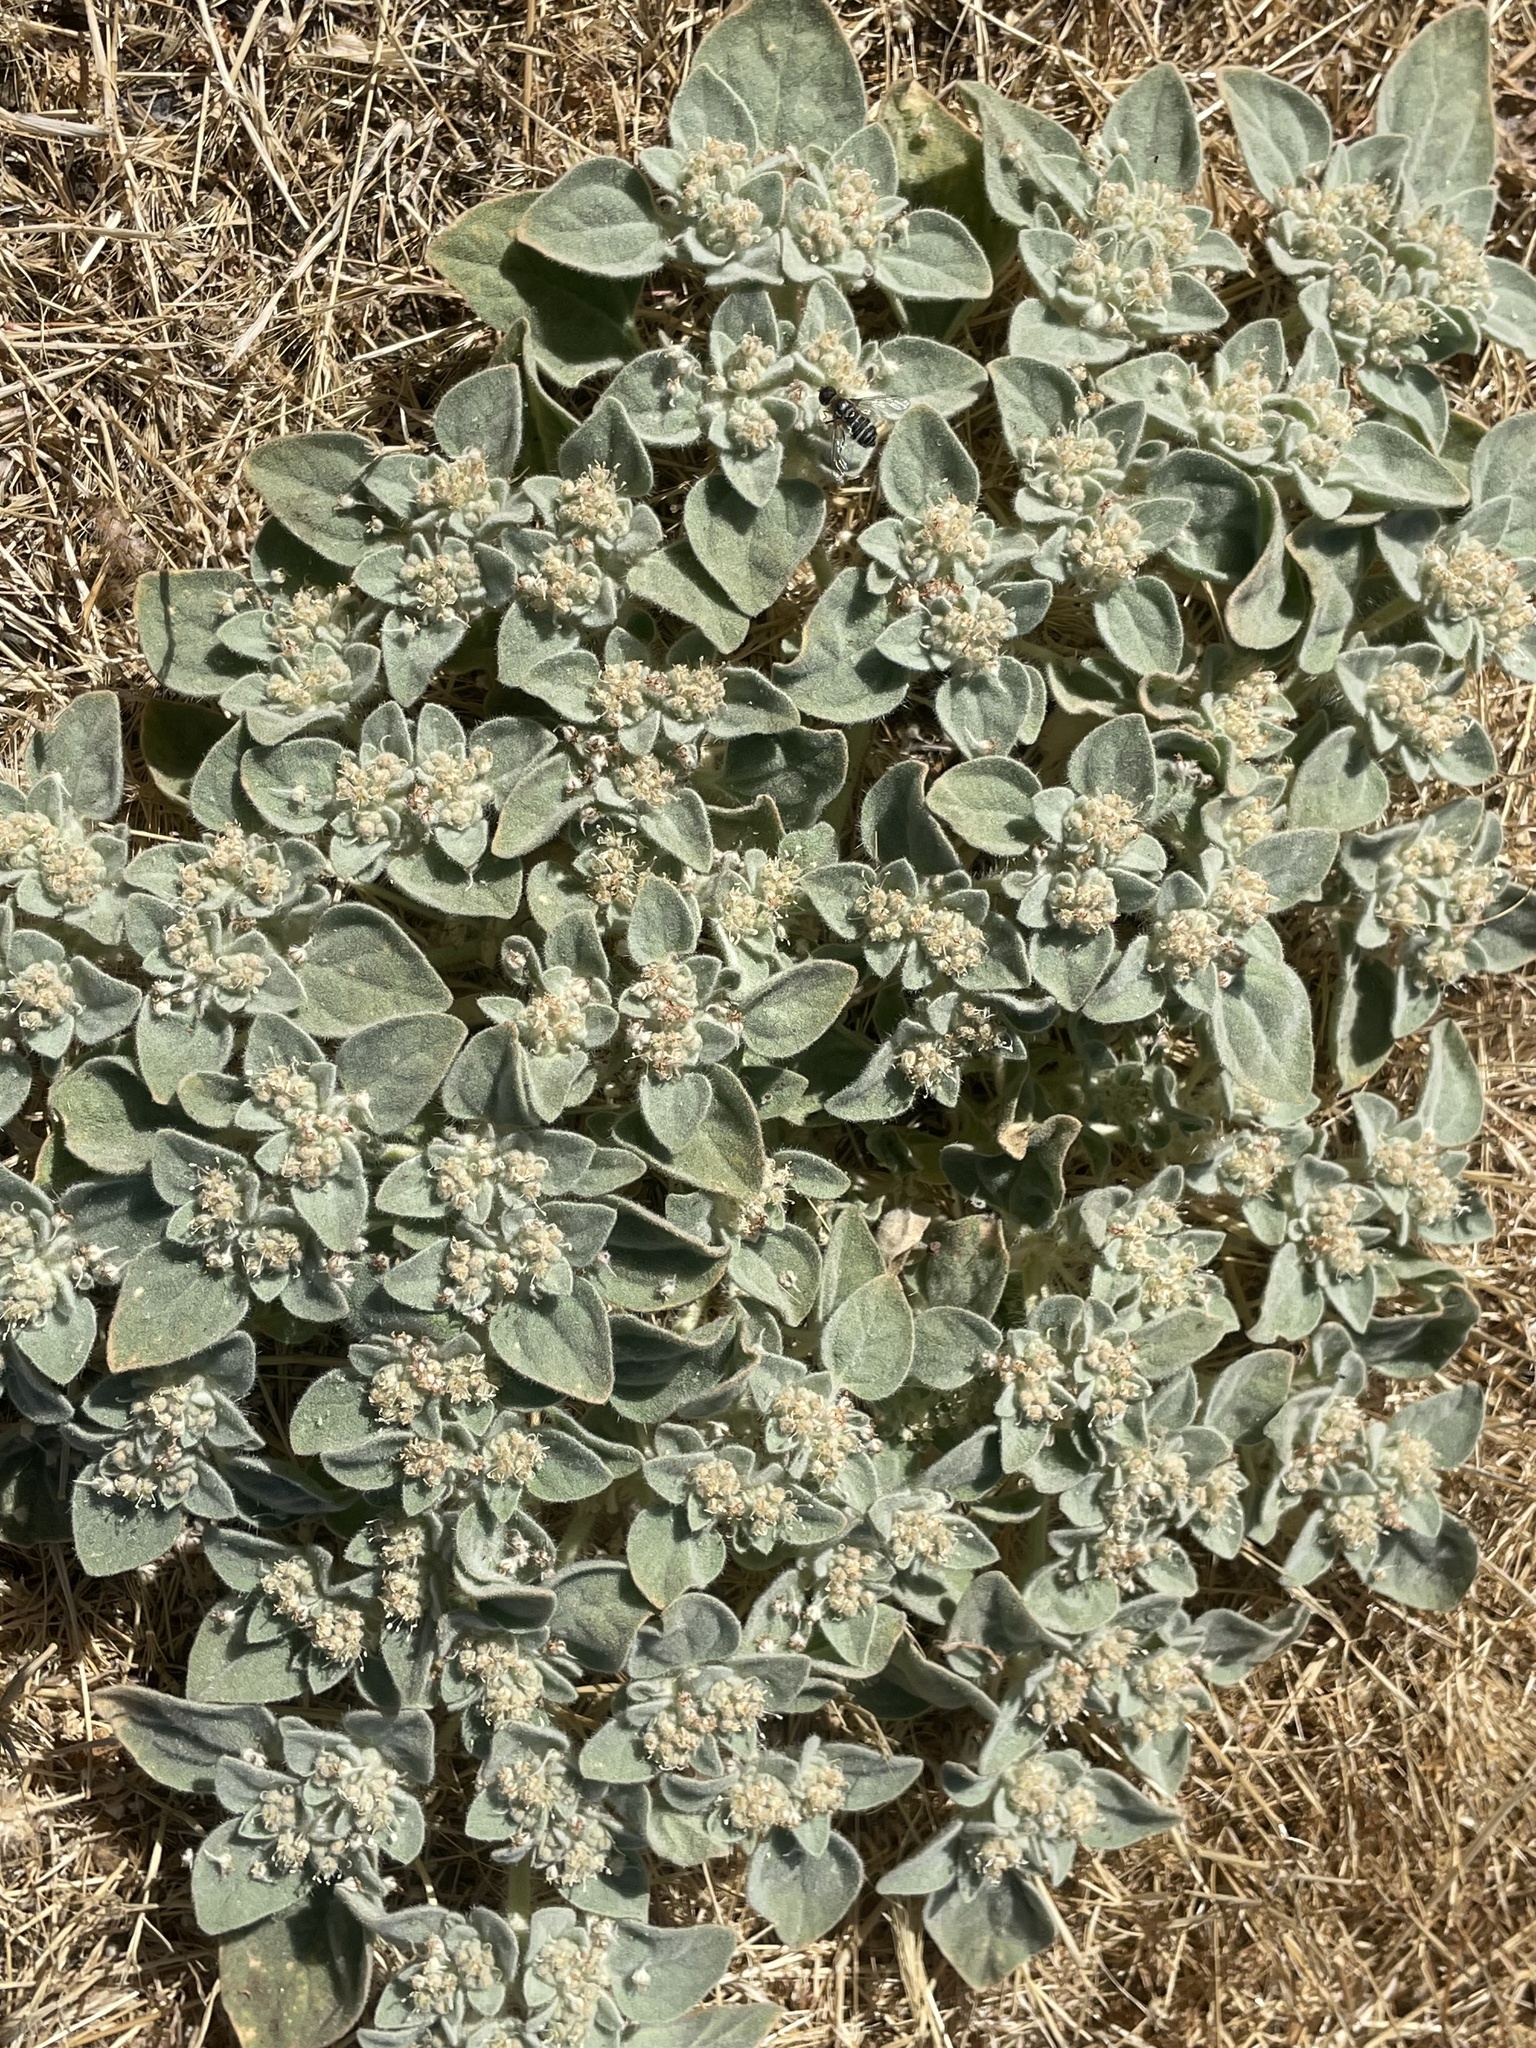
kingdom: Plantae
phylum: Tracheophyta
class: Magnoliopsida
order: Malpighiales
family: Euphorbiaceae
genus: Croton
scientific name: Croton setiger
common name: Dove weed
